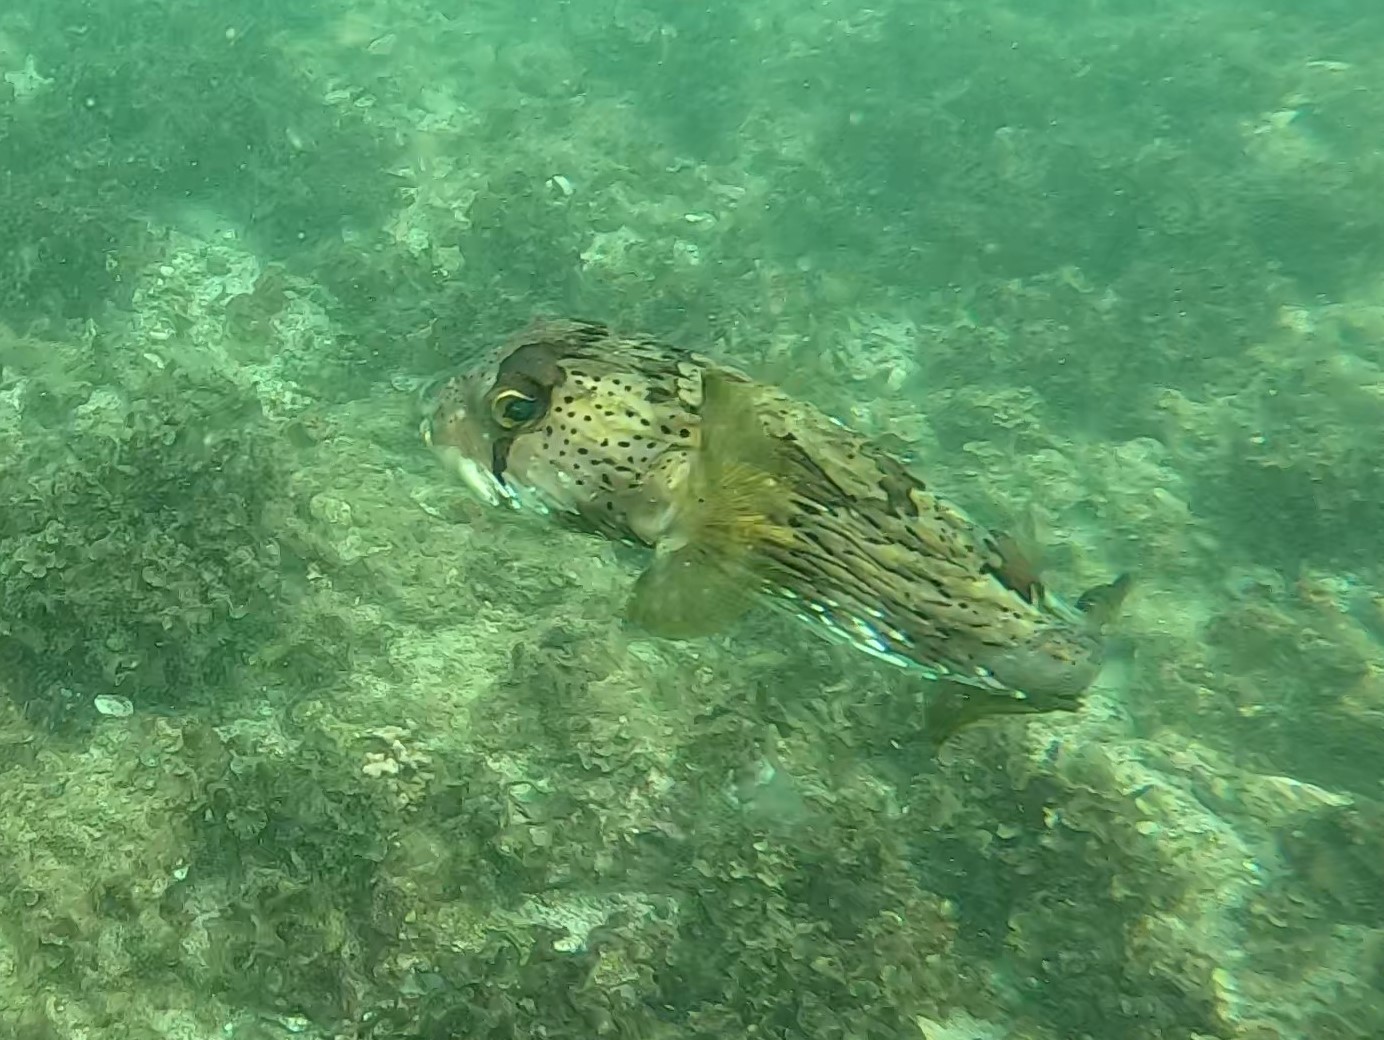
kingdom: Animalia
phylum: Chordata
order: Tetraodontiformes
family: Diodontidae
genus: Diodon
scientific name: Diodon holocanthus
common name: Balloonfish
